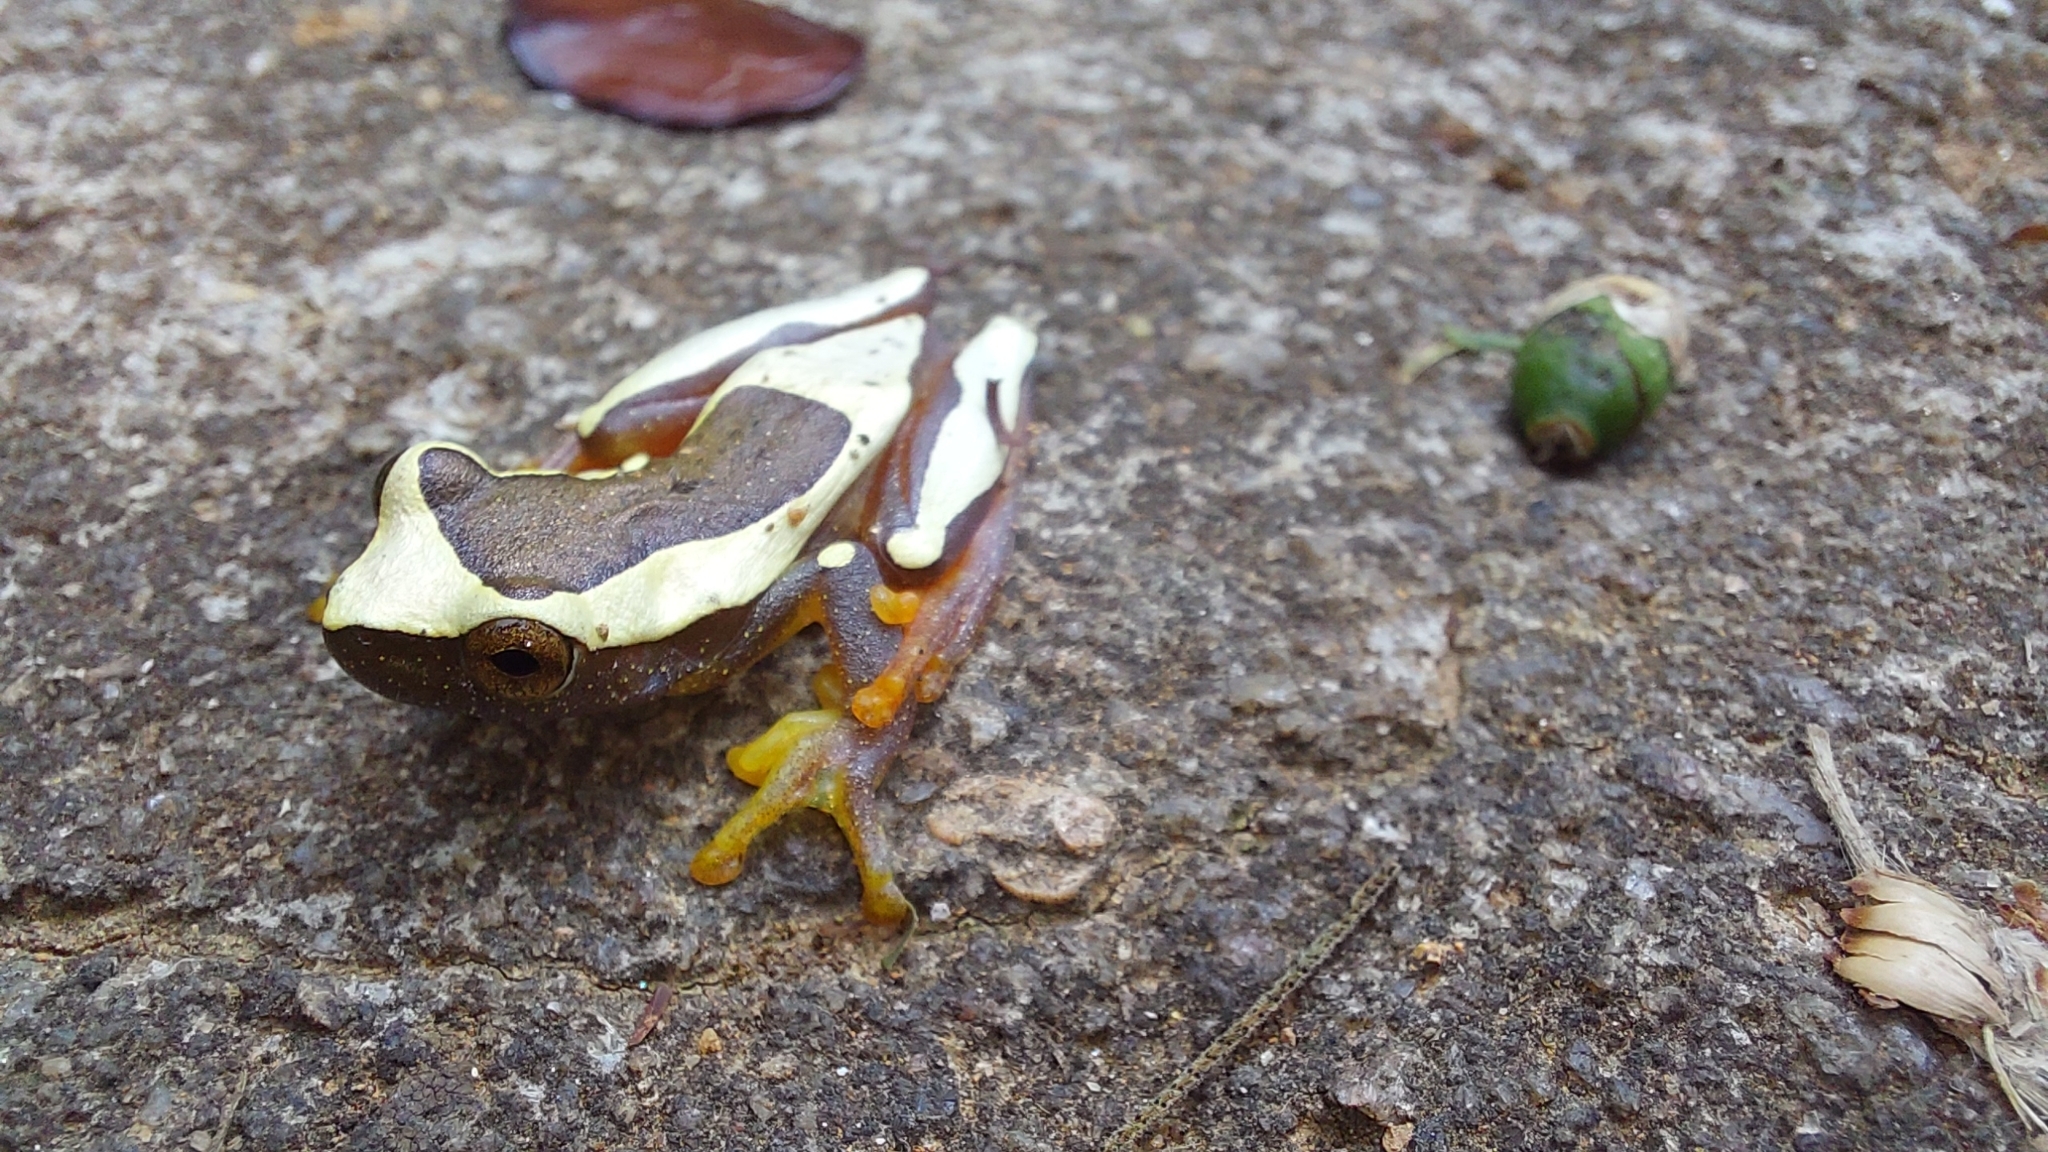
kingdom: Animalia
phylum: Chordata
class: Amphibia
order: Anura
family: Hylidae
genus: Dendropsophus
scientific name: Dendropsophus elegans
